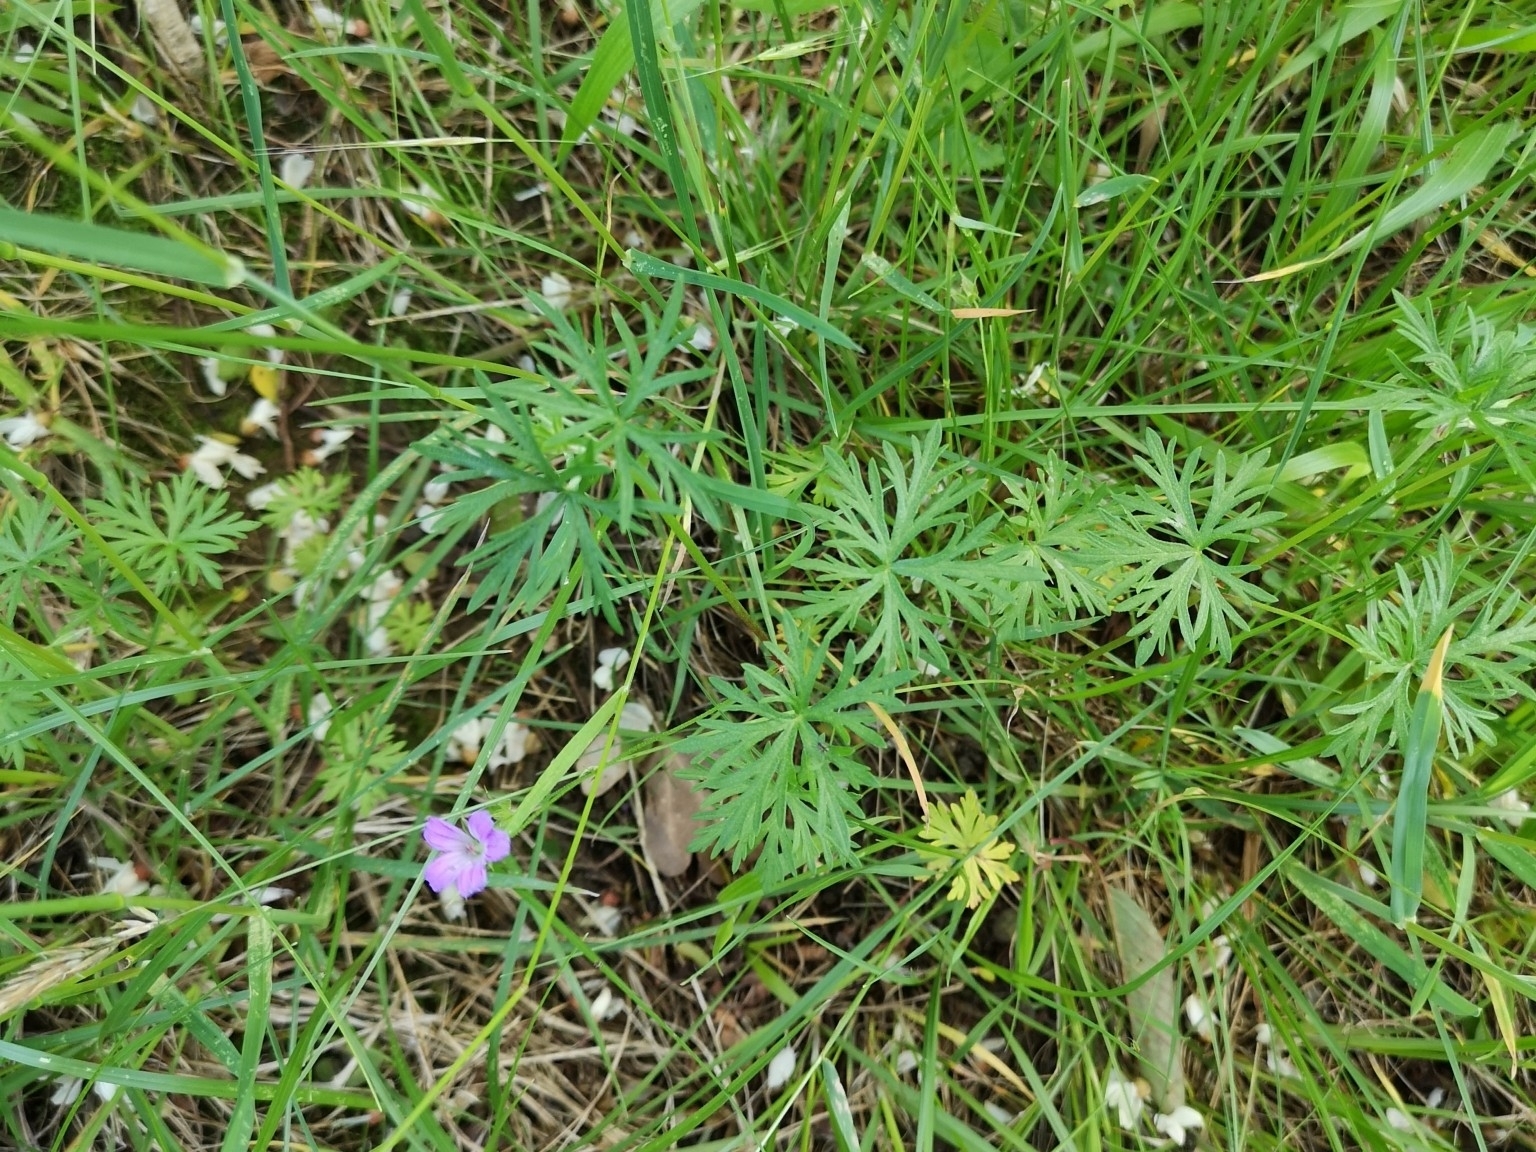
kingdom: Plantae
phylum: Tracheophyta
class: Magnoliopsida
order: Geraniales
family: Geraniaceae
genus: Geranium
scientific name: Geranium columbinum
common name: Long-stalked crane's-bill
